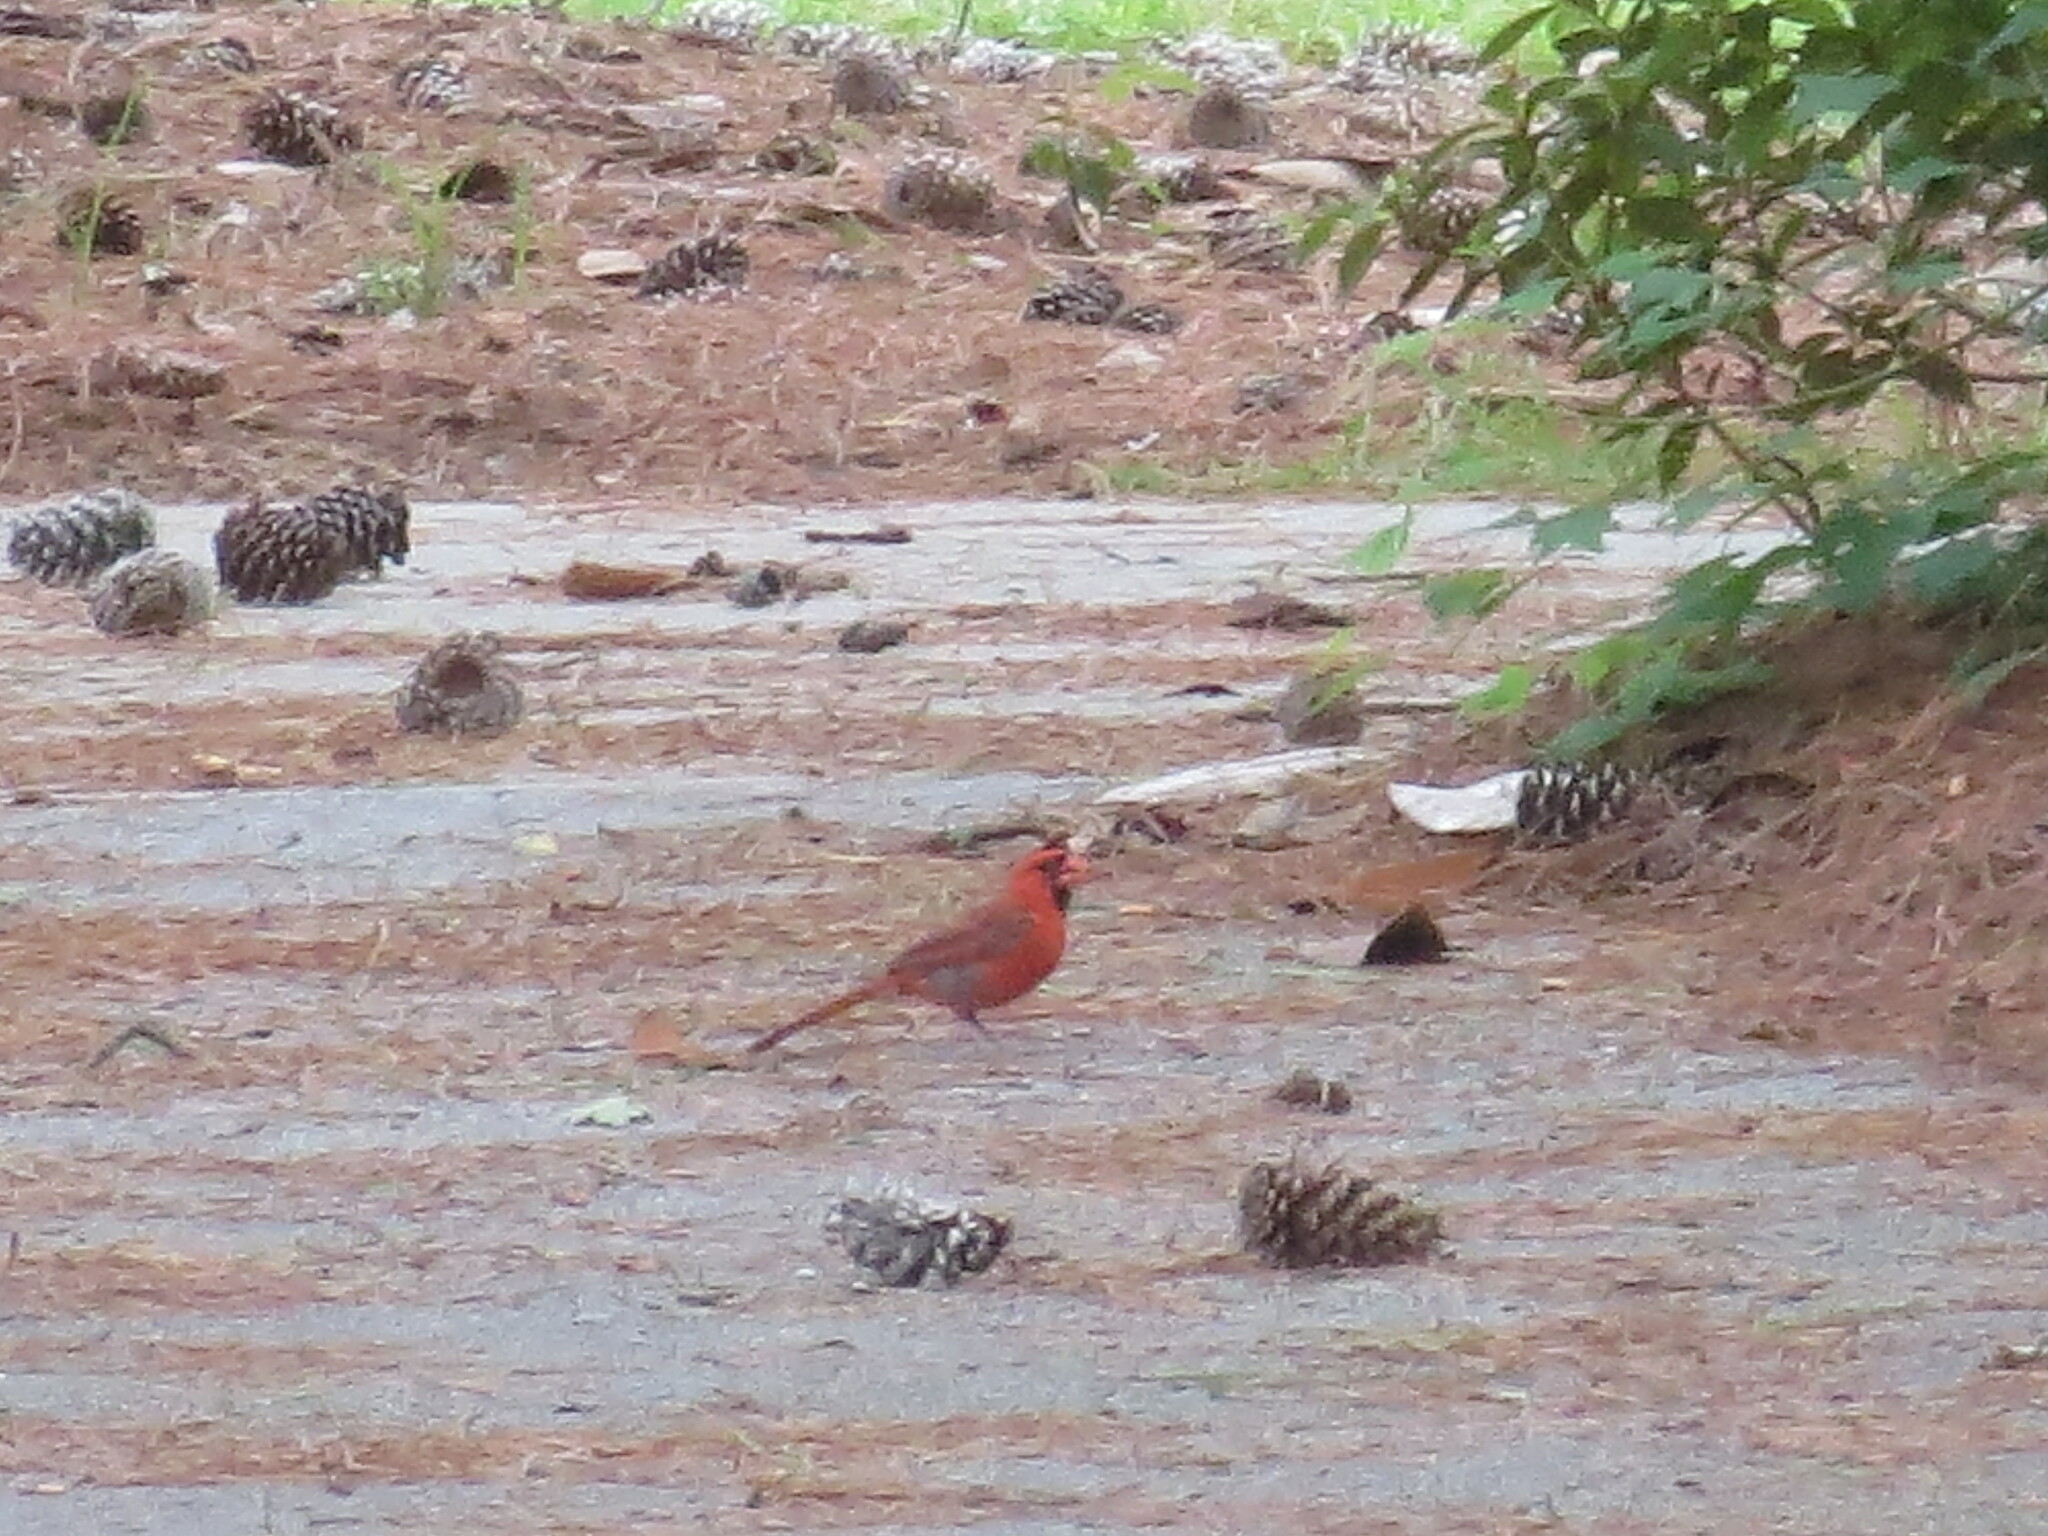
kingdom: Animalia
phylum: Chordata
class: Aves
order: Passeriformes
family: Cardinalidae
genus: Cardinalis
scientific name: Cardinalis cardinalis
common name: Northern cardinal
